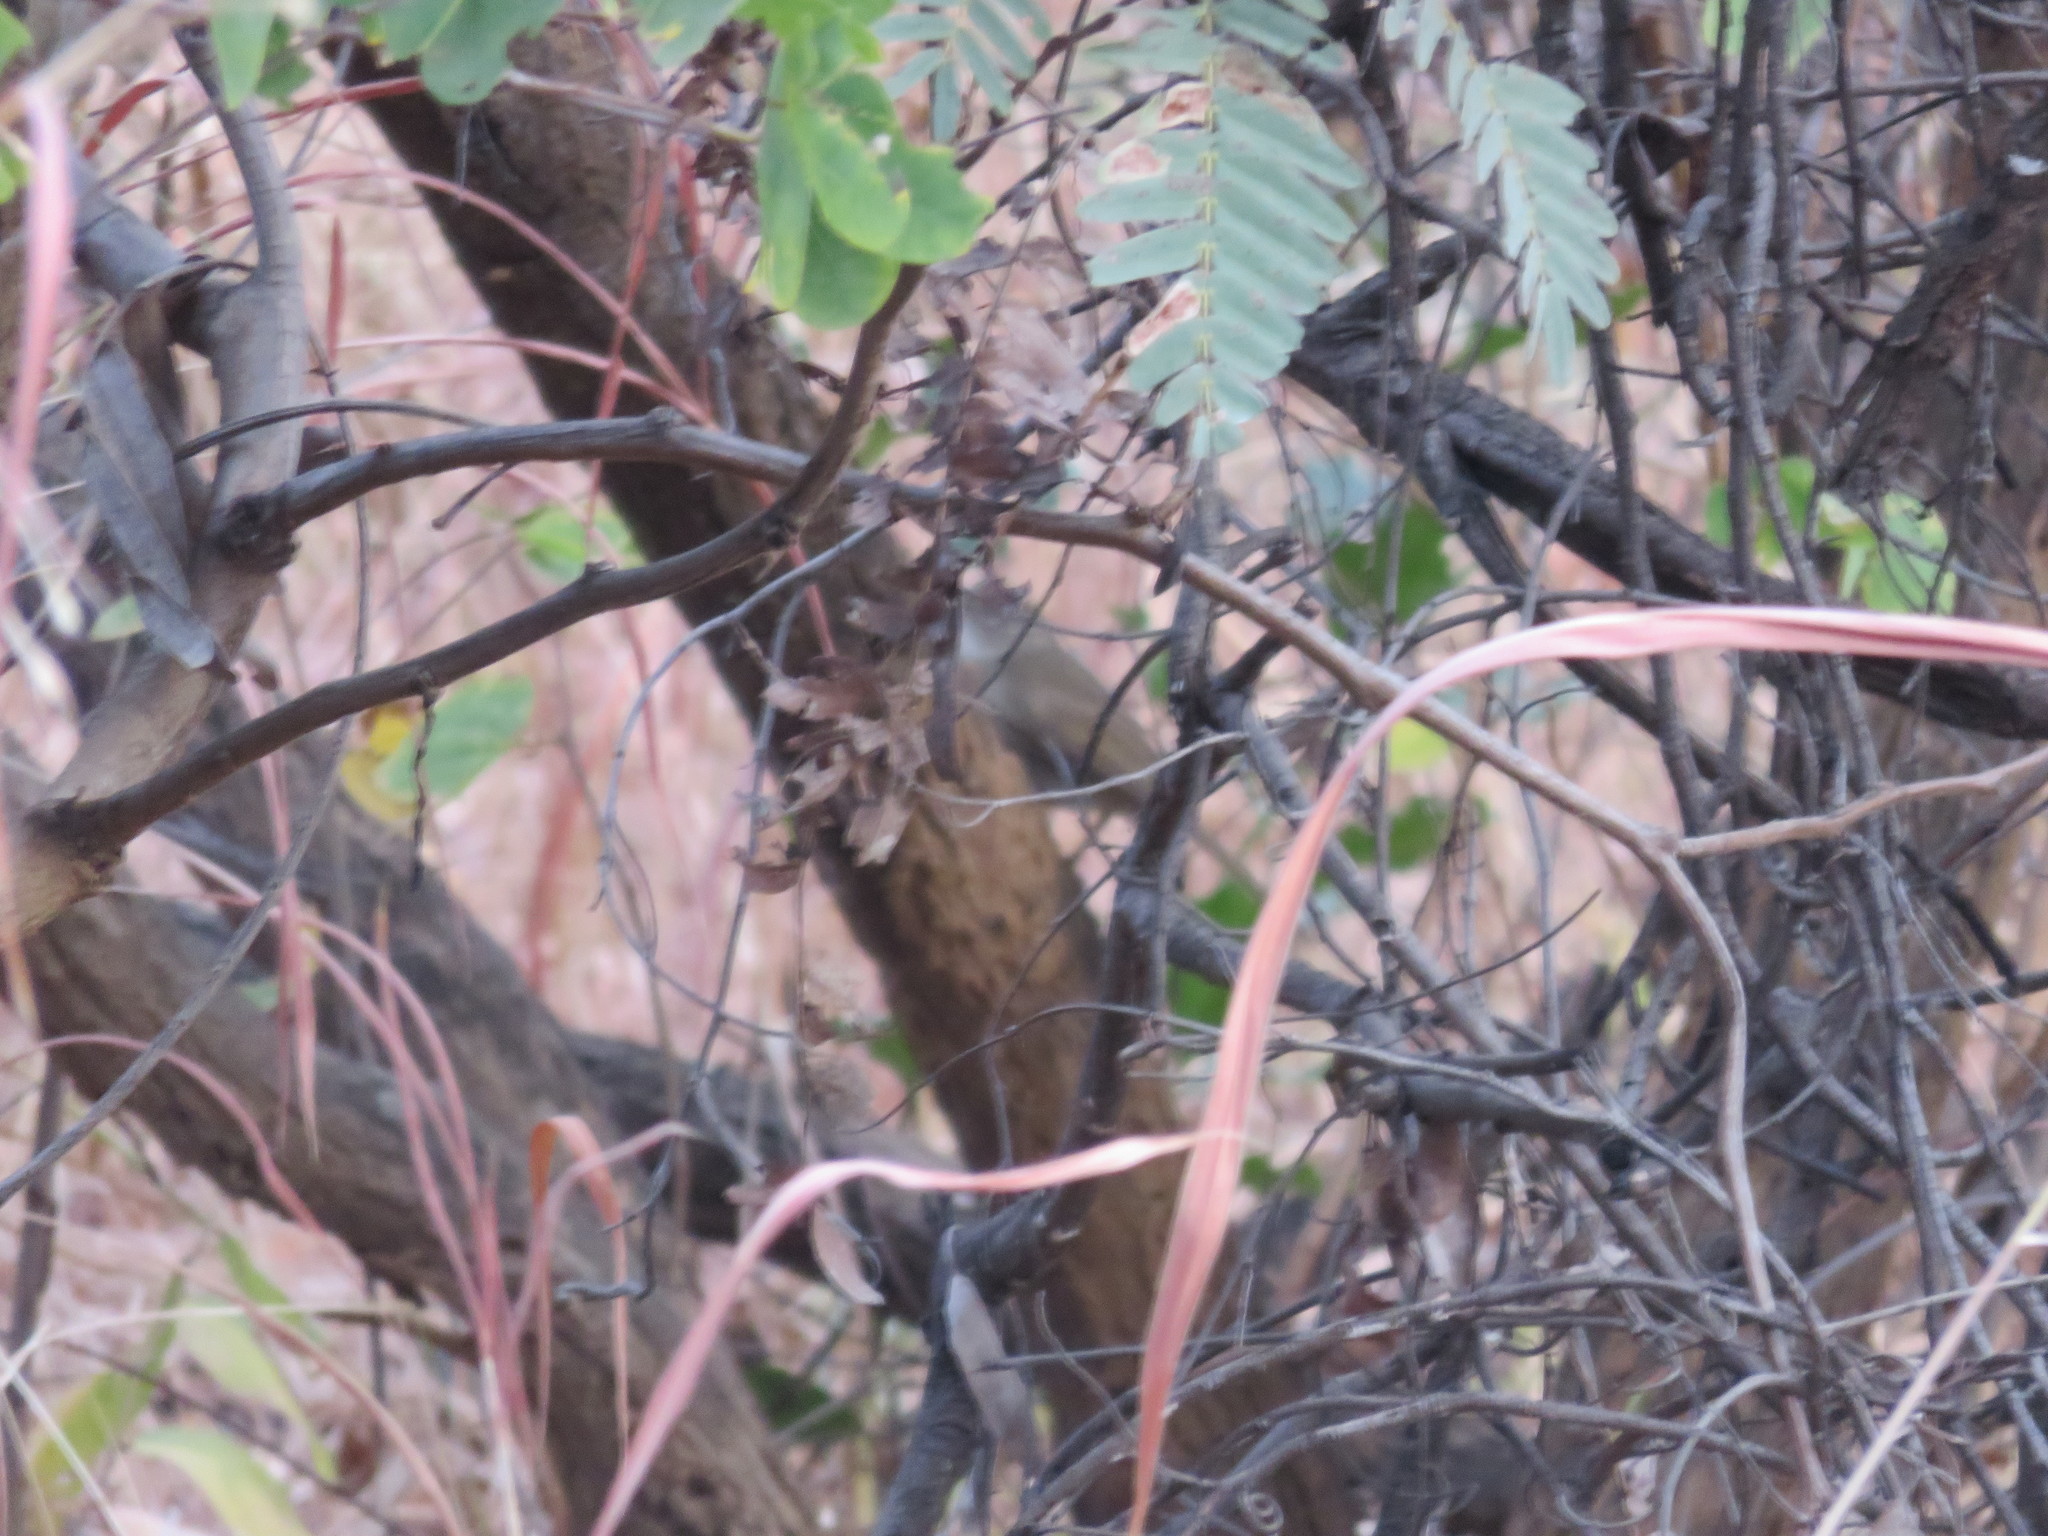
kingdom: Animalia
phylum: Chordata
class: Aves
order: Passeriformes
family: Pycnonotidae
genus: Phyllastrephus
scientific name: Phyllastrephus terrestris
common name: Terrestrial brownbul
